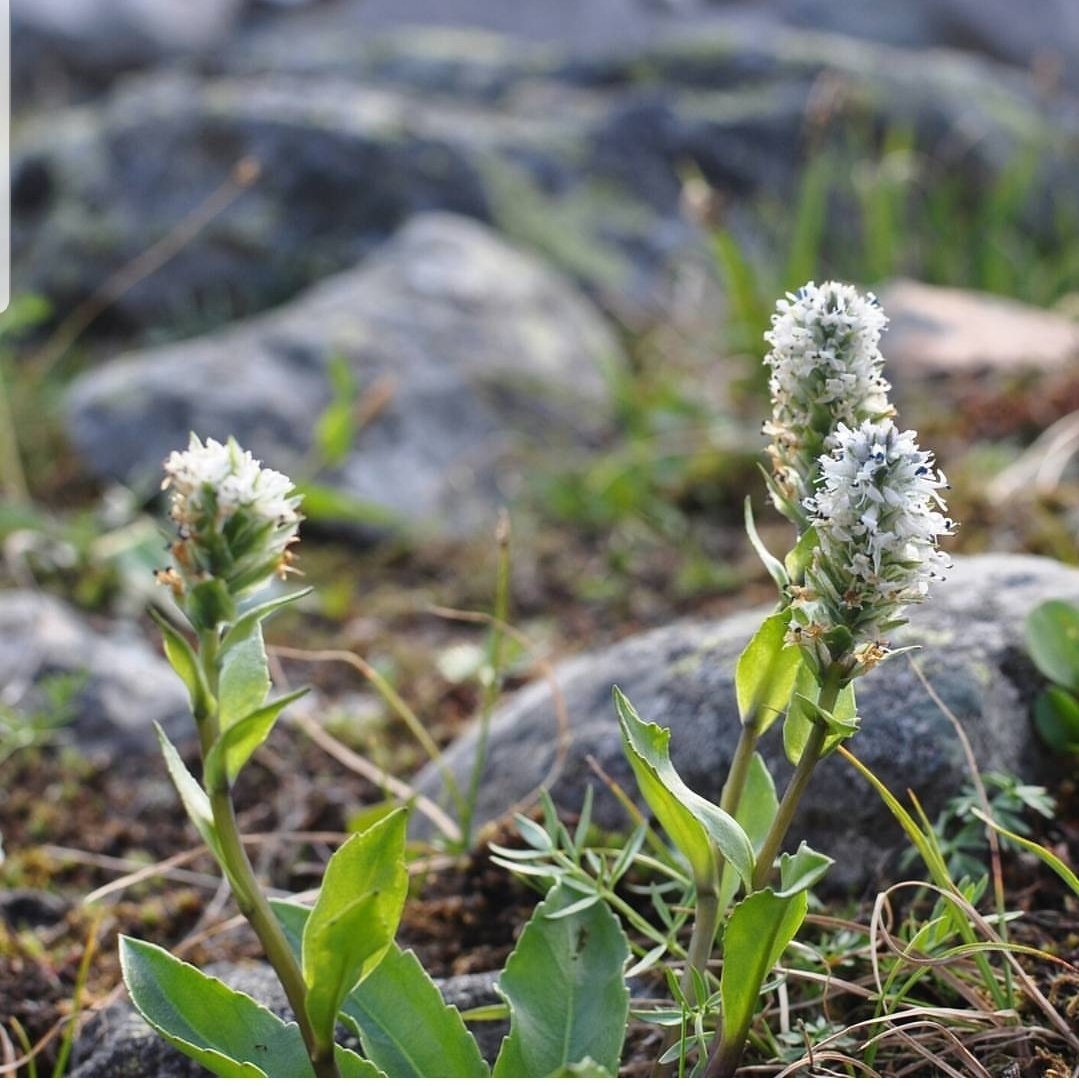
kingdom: Plantae
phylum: Tracheophyta
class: Magnoliopsida
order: Lamiales
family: Plantaginaceae
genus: Lagotis
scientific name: Lagotis uralensis
